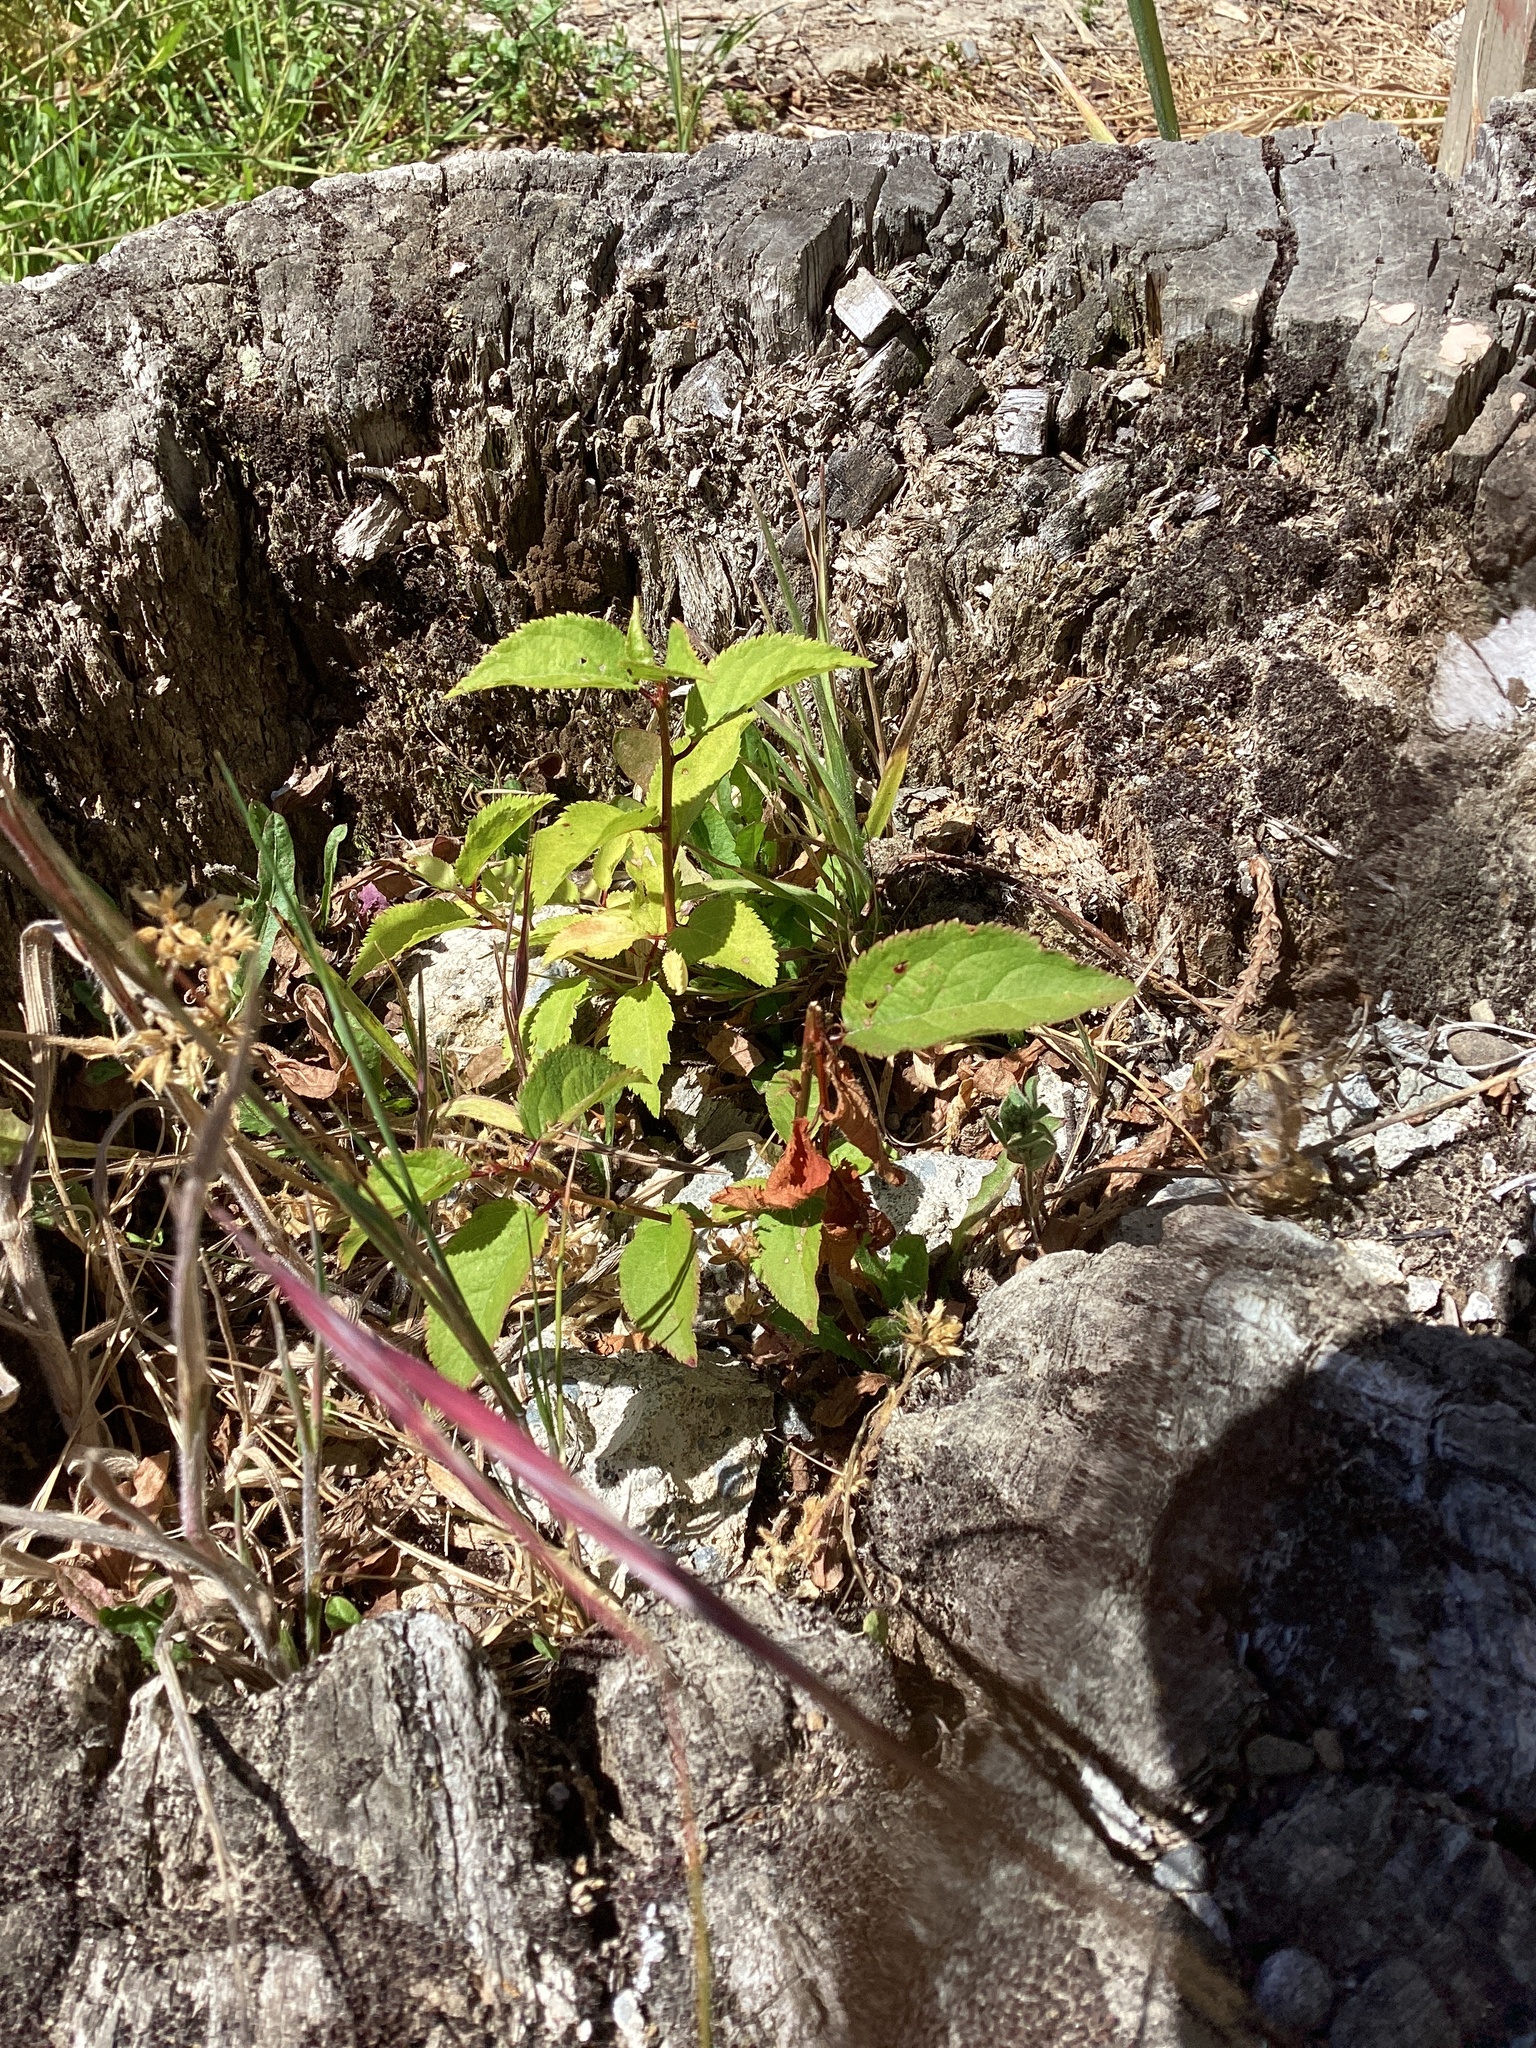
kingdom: Plantae
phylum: Tracheophyta
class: Magnoliopsida
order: Oxalidales
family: Elaeocarpaceae
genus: Aristotelia
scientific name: Aristotelia serrata
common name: New zealand wineberry
